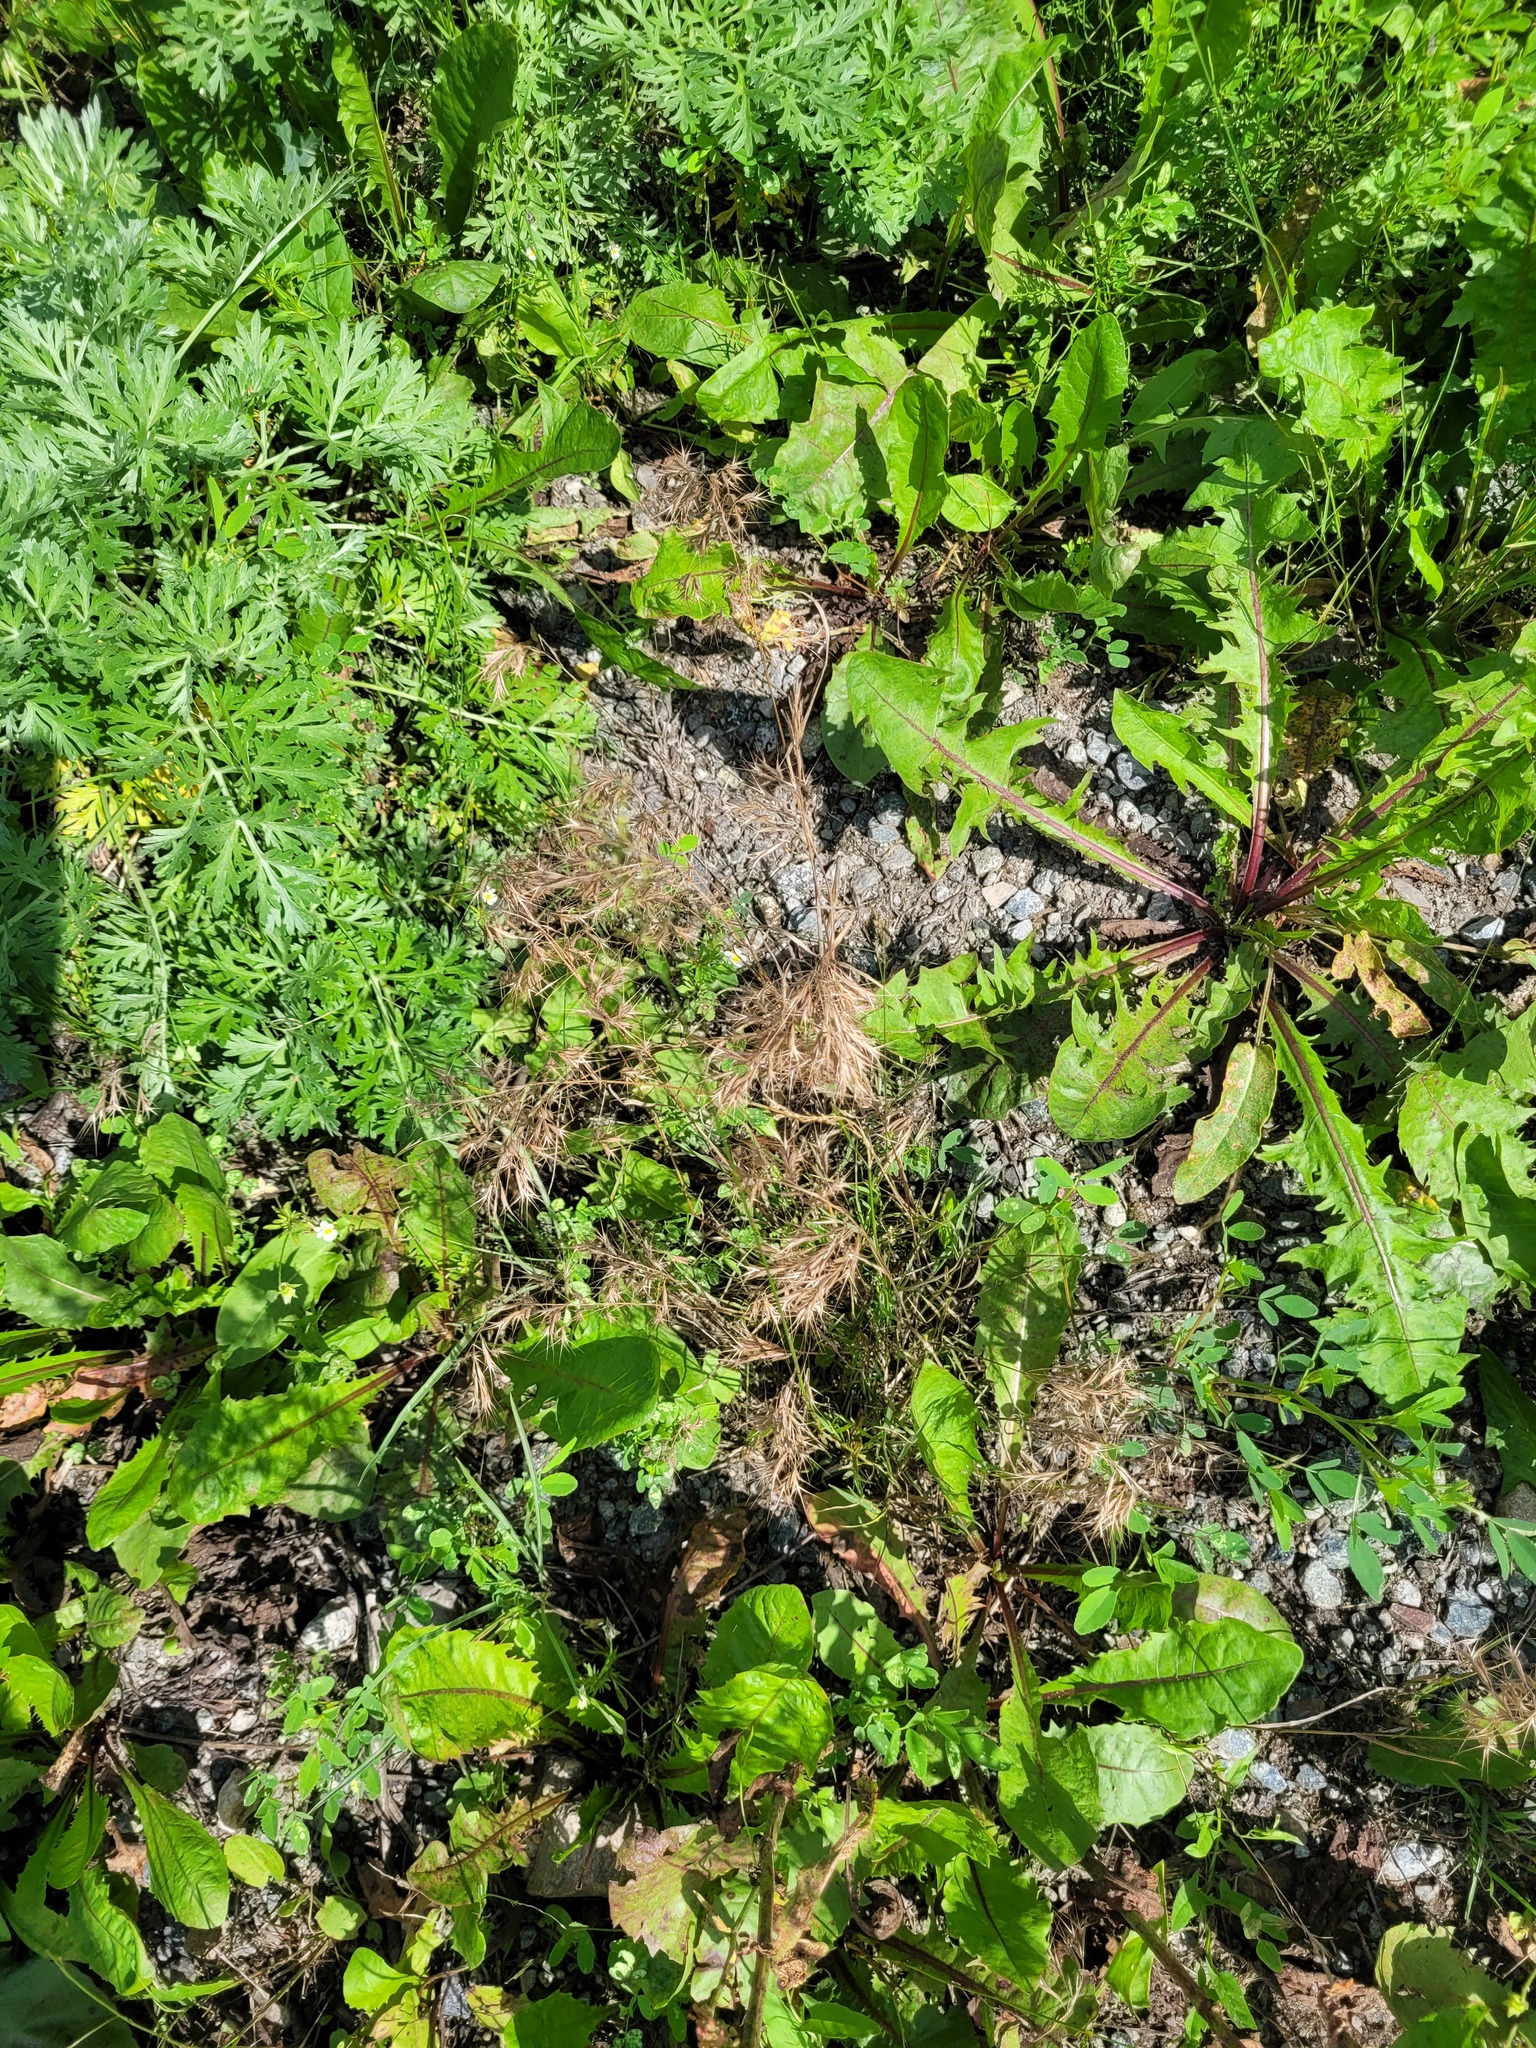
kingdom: Plantae
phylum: Tracheophyta
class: Liliopsida
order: Poales
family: Poaceae
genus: Bromus
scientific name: Bromus tectorum
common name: Cheatgrass
